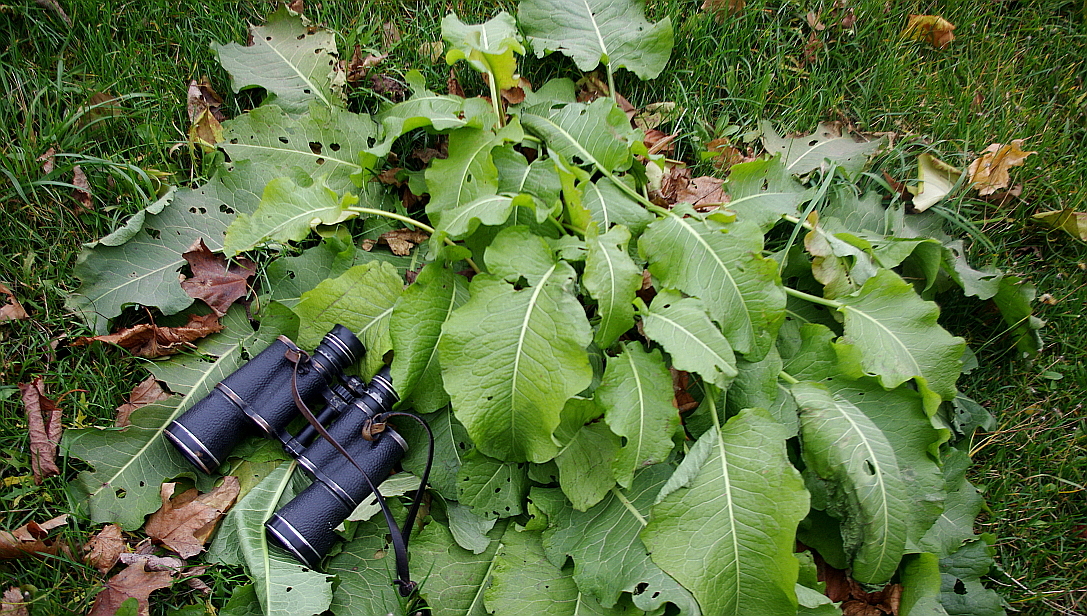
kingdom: Plantae
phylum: Tracheophyta
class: Magnoliopsida
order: Caryophyllales
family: Polygonaceae
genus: Rumex
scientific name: Rumex confertus
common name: Russian dock
